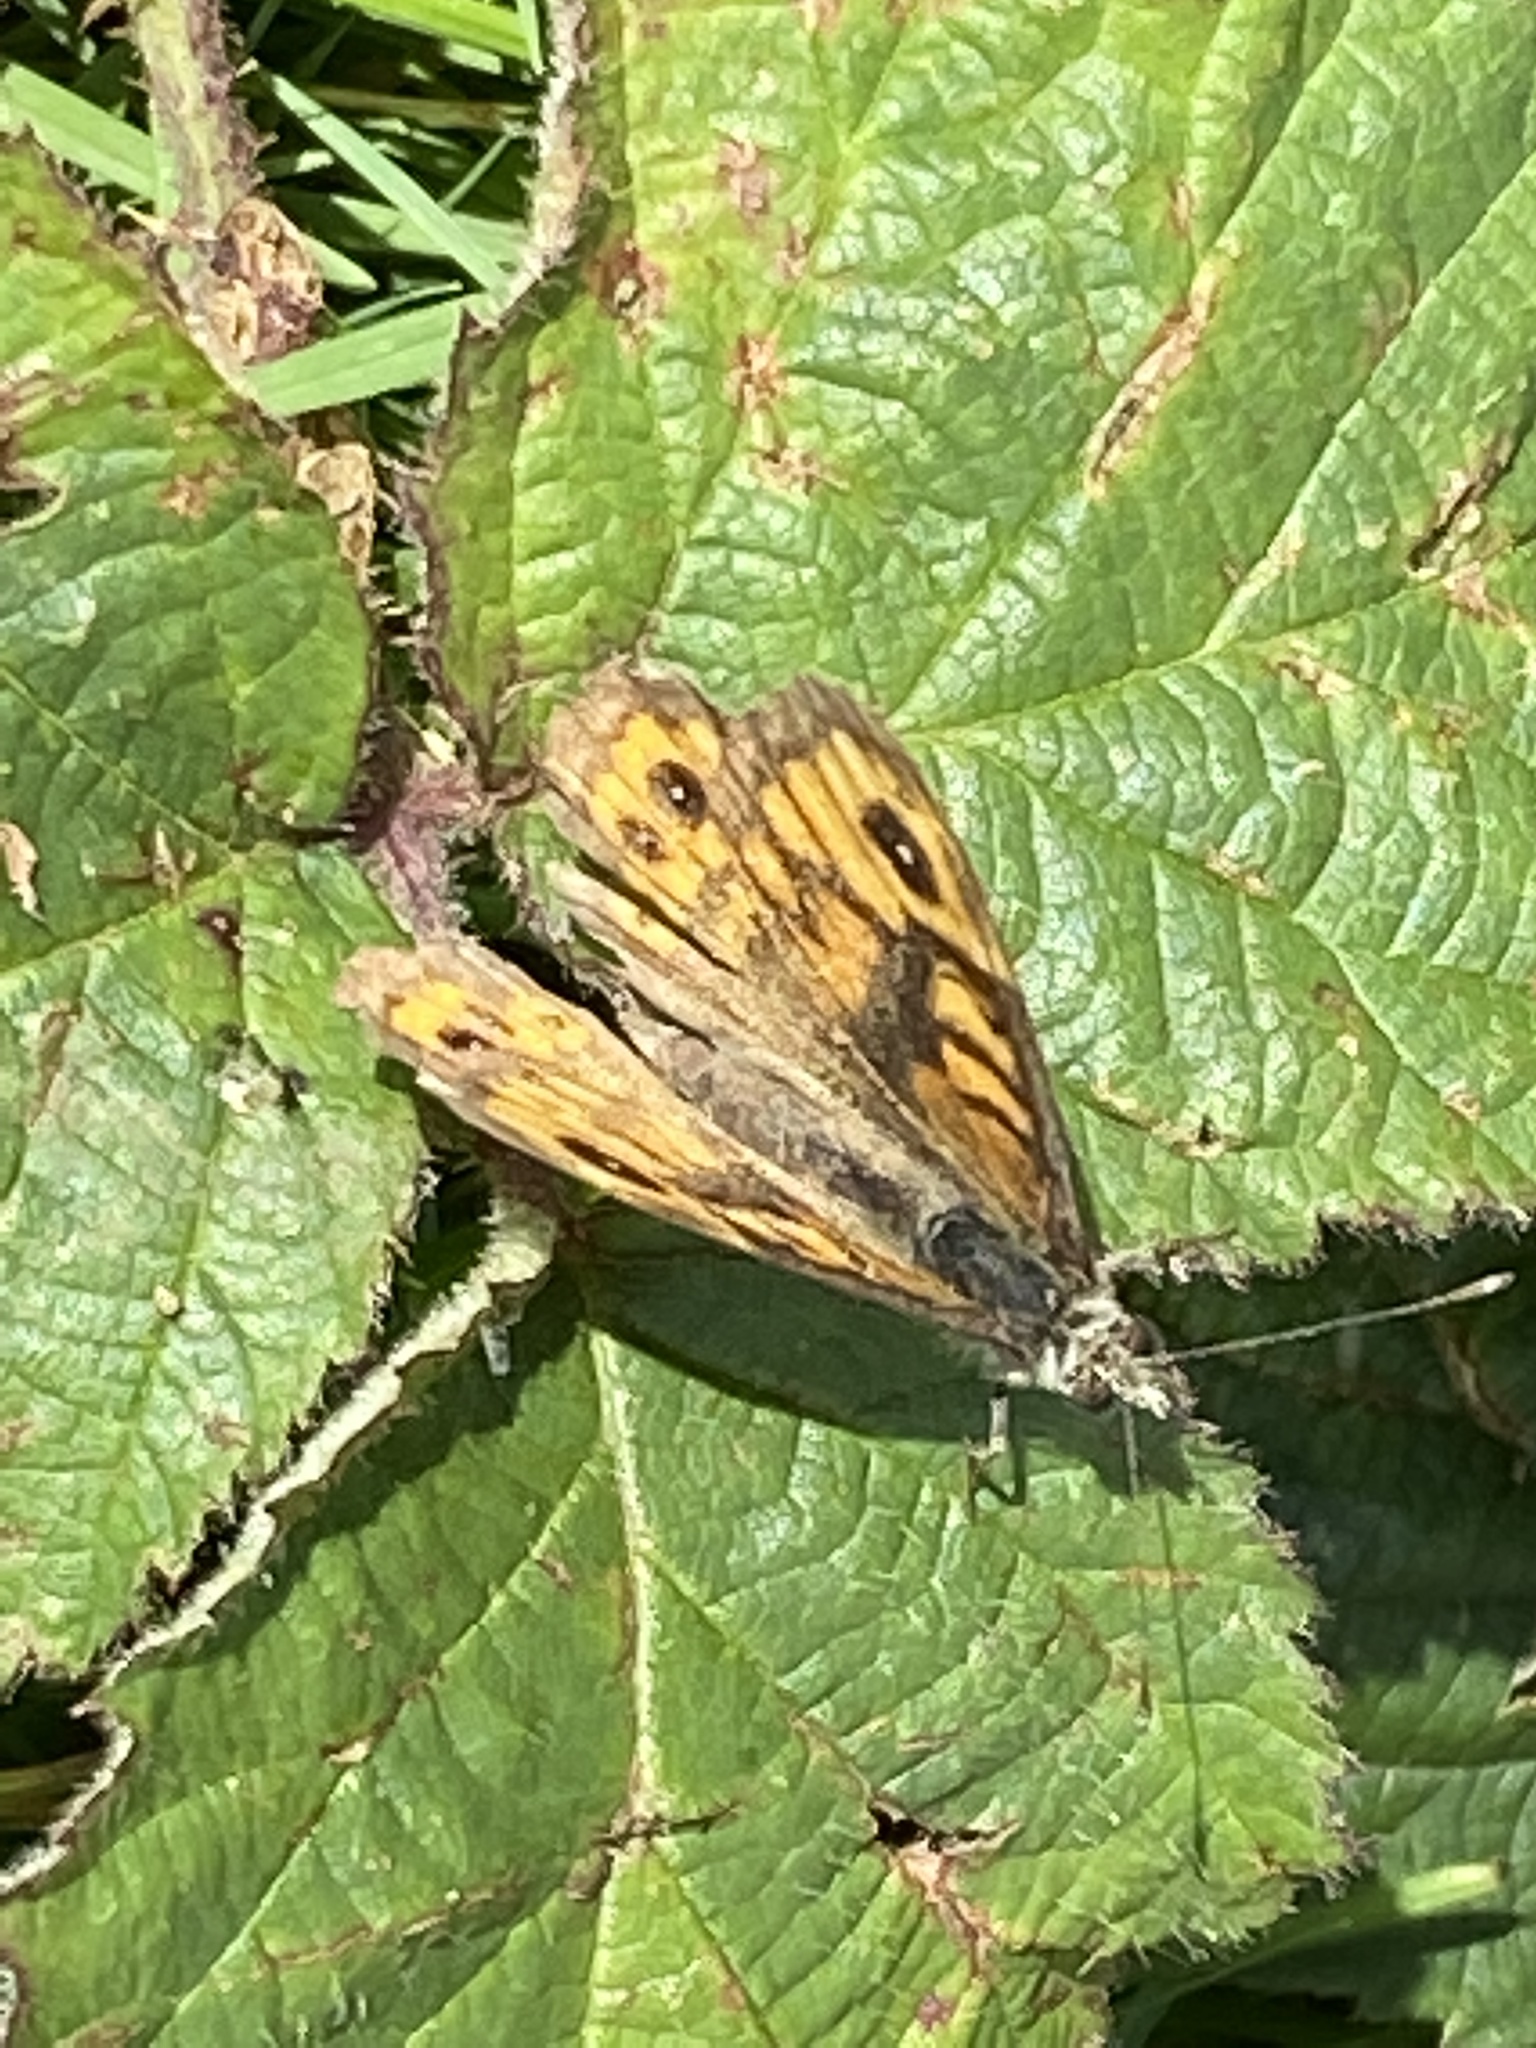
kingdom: Animalia
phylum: Arthropoda
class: Insecta
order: Lepidoptera
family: Nymphalidae
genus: Pararge
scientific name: Pararge Lasiommata megera
